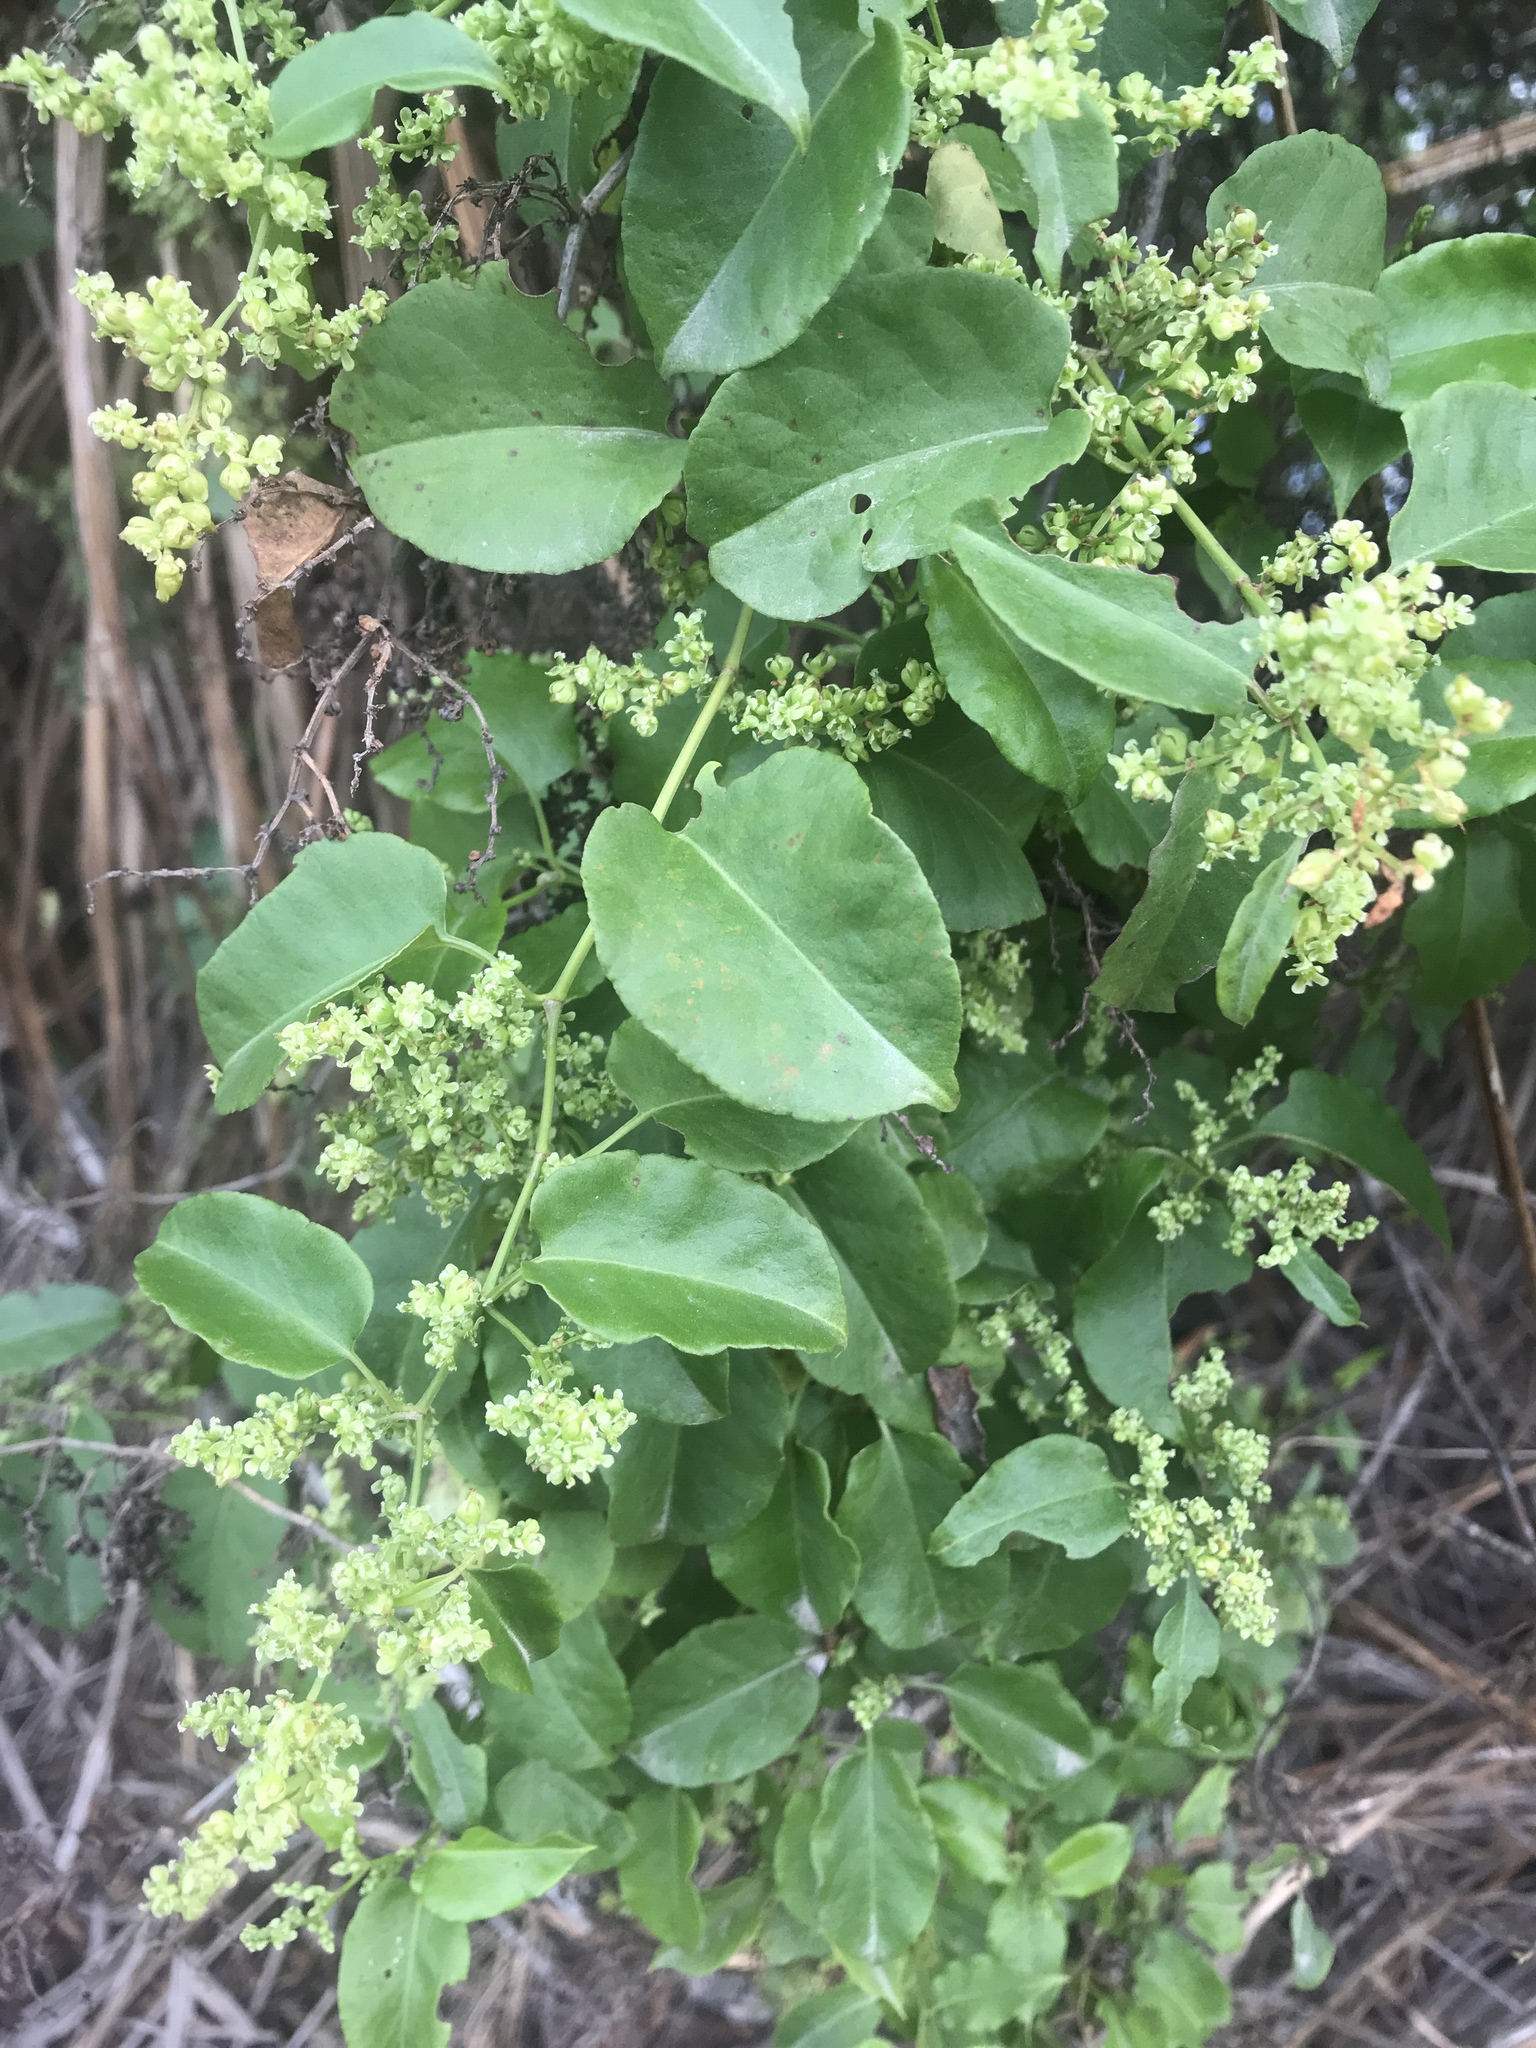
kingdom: Plantae
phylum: Tracheophyta
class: Magnoliopsida
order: Caryophyllales
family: Polygonaceae
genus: Muehlenbeckia
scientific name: Muehlenbeckia australis
